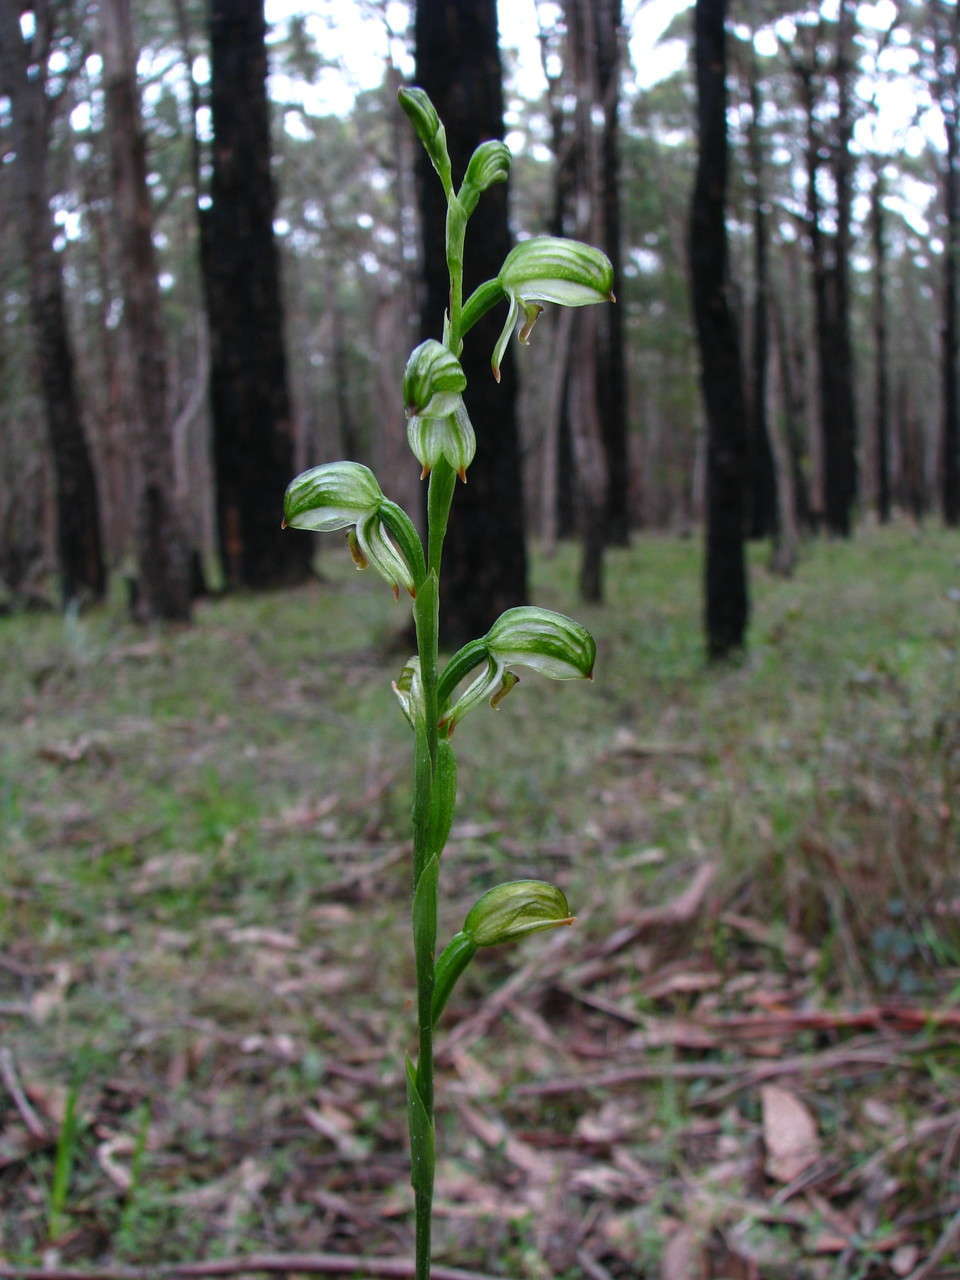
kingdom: Plantae
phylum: Tracheophyta
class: Liliopsida
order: Asparagales
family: Orchidaceae
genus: Pterostylis
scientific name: Pterostylis melagramma
